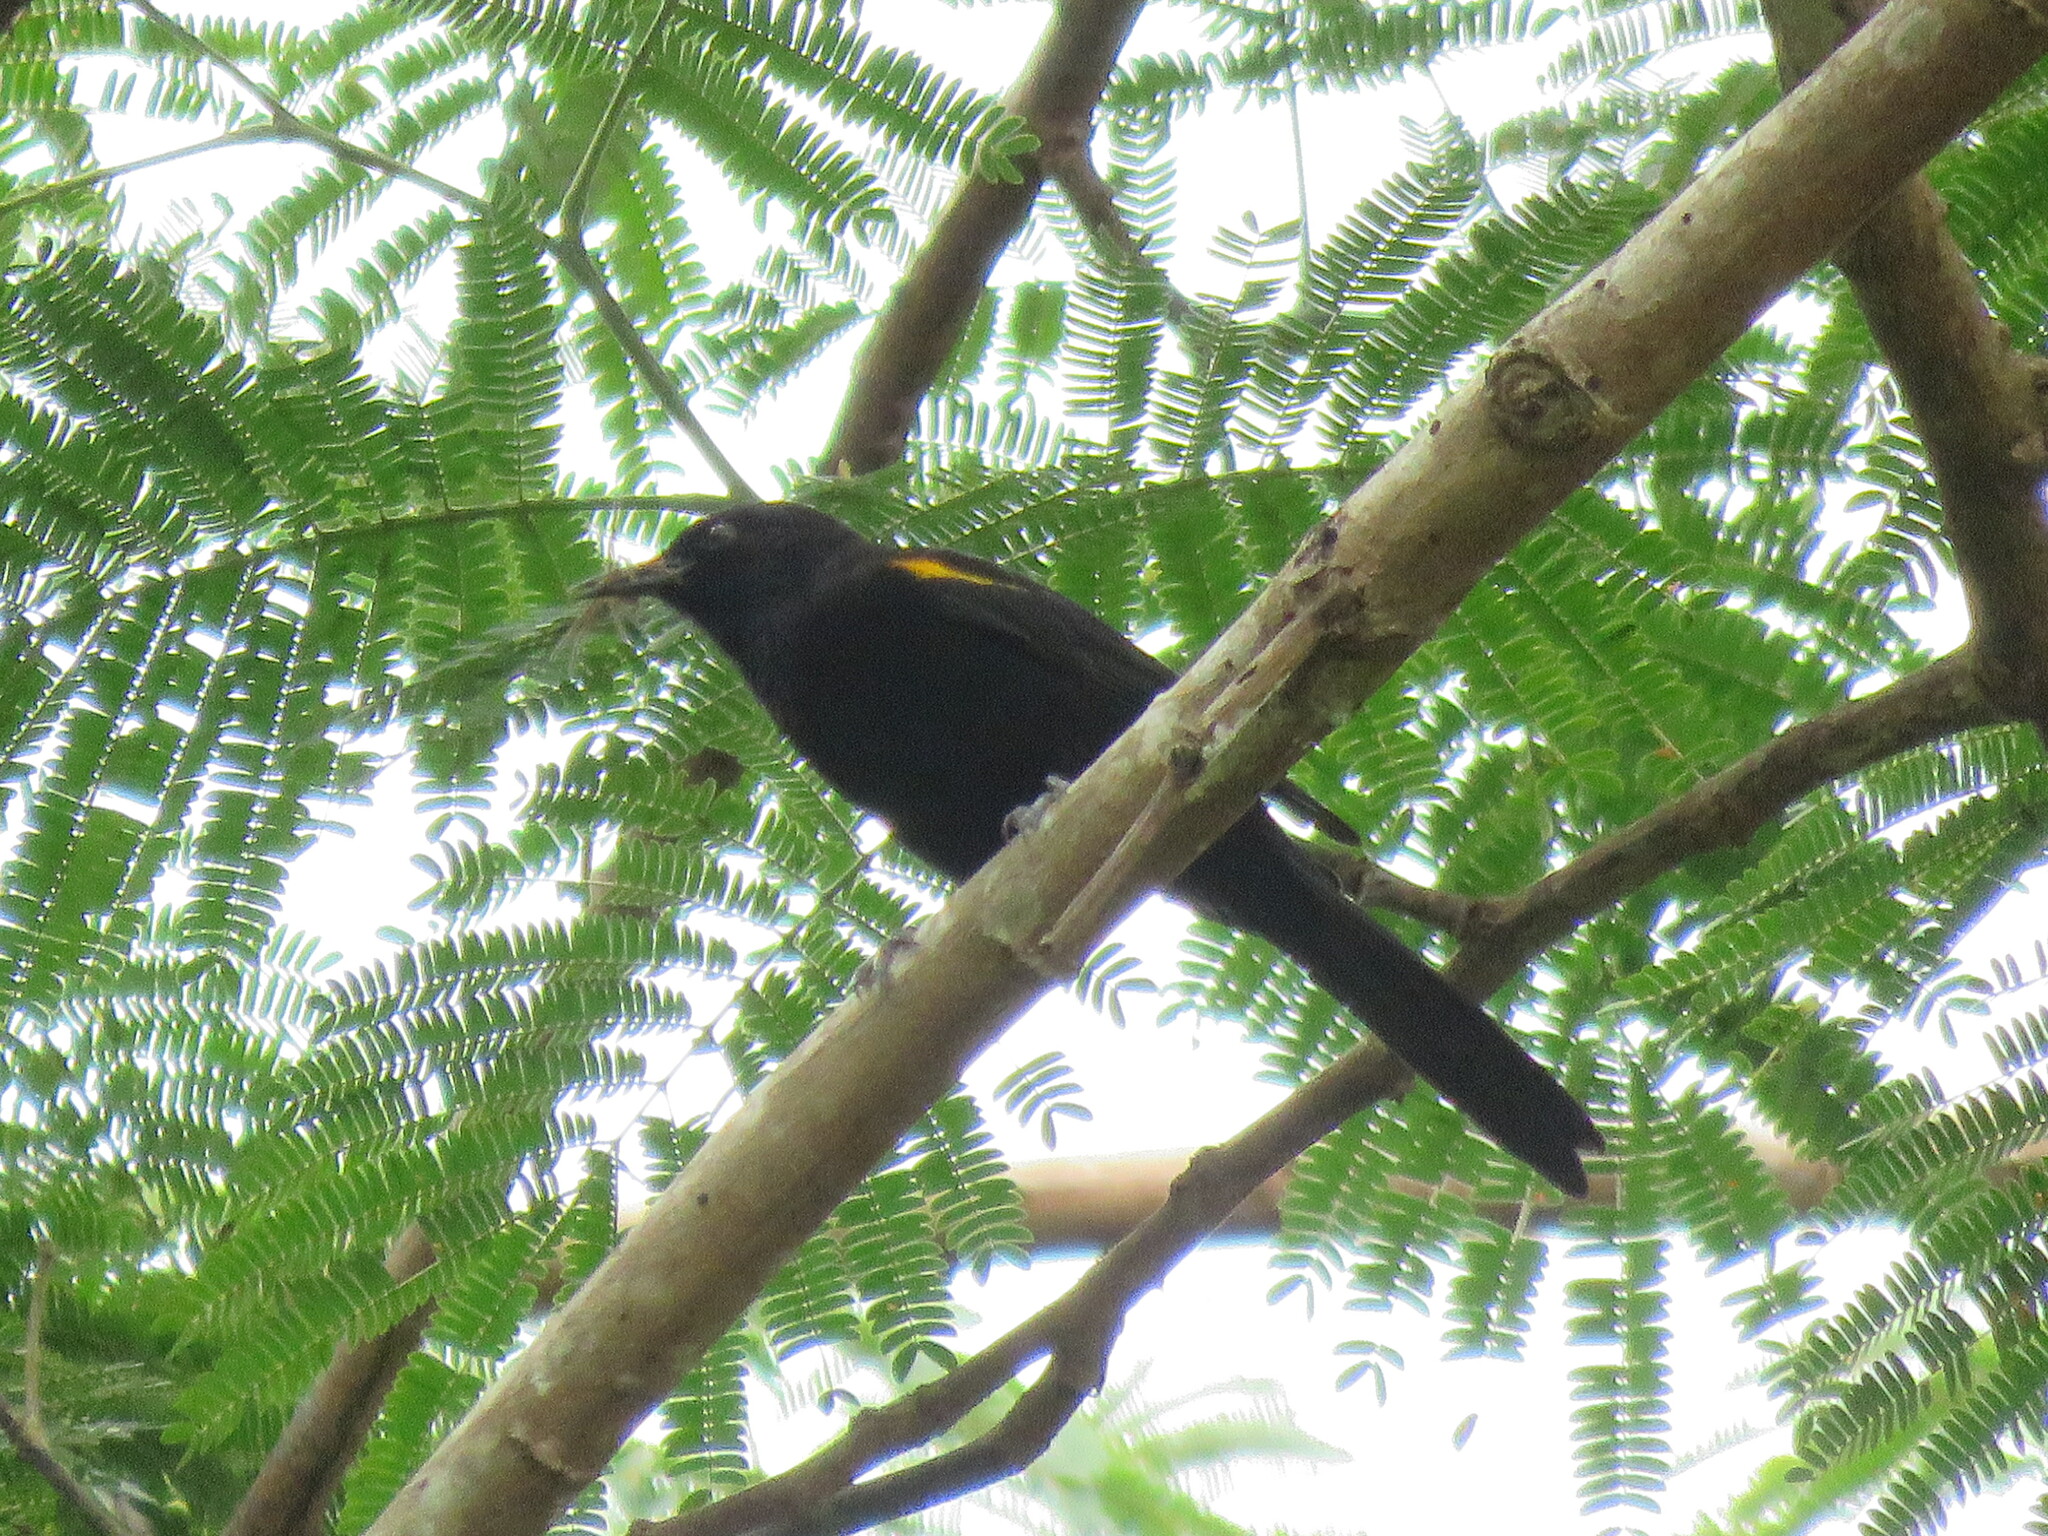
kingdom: Animalia
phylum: Chordata
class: Aves
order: Passeriformes
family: Icteridae
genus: Icterus
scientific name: Icterus cayanensis
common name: Epaulet oriole
